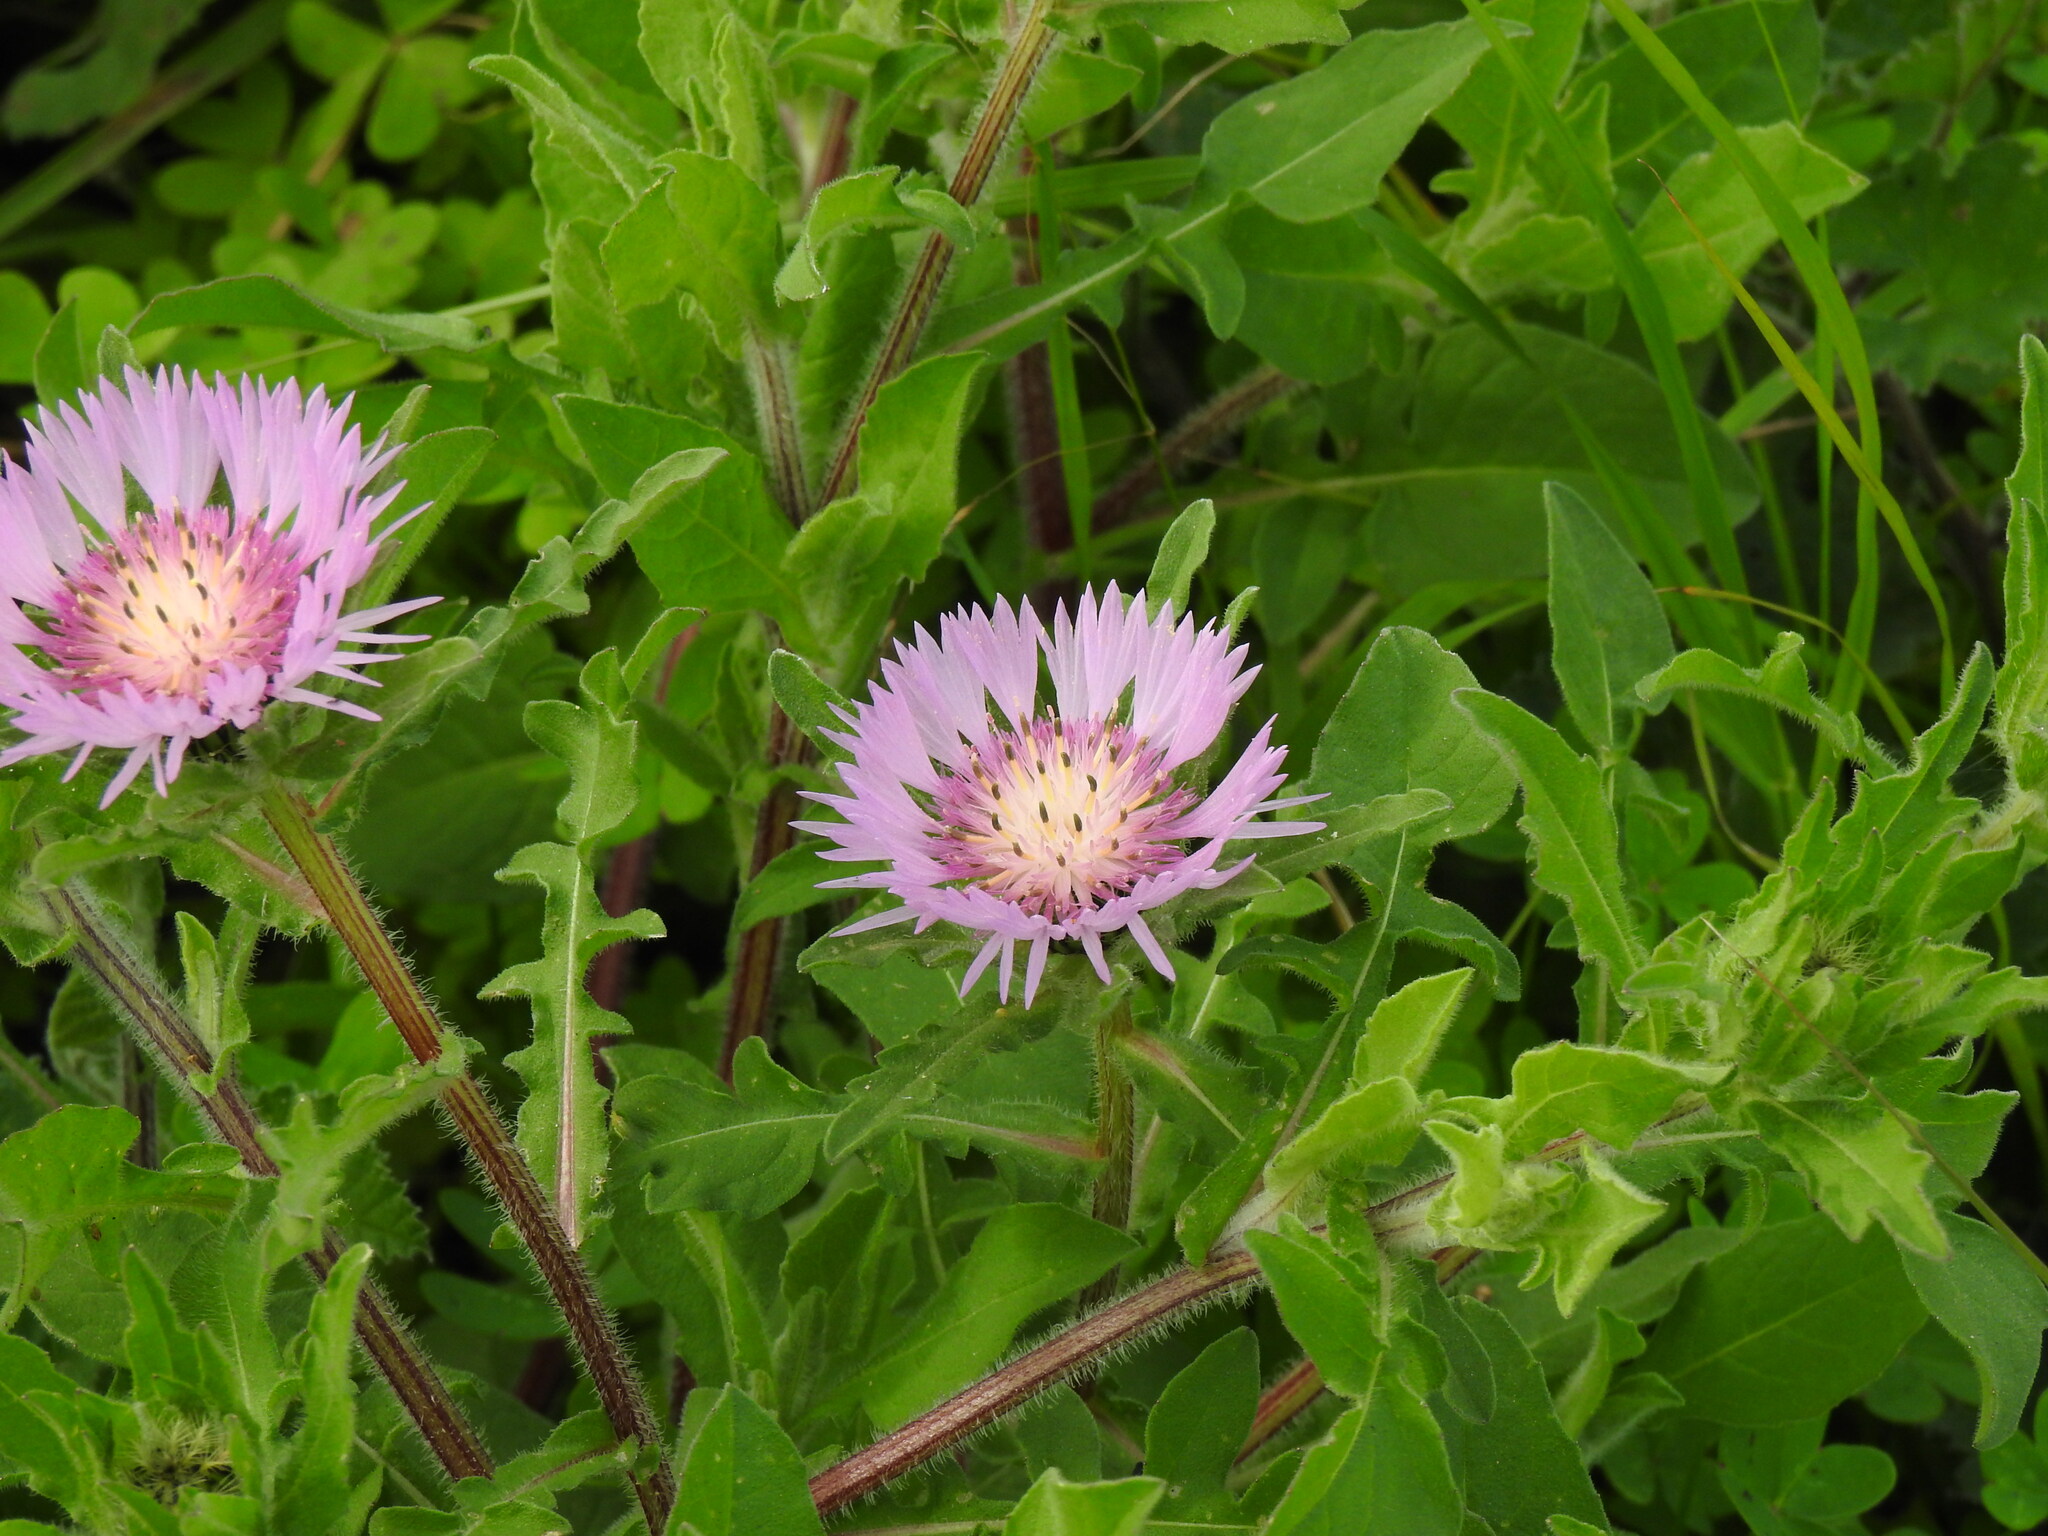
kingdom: Plantae
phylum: Tracheophyta
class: Magnoliopsida
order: Asterales
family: Asteraceae
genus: Centaurea
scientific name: Centaurea pullata
